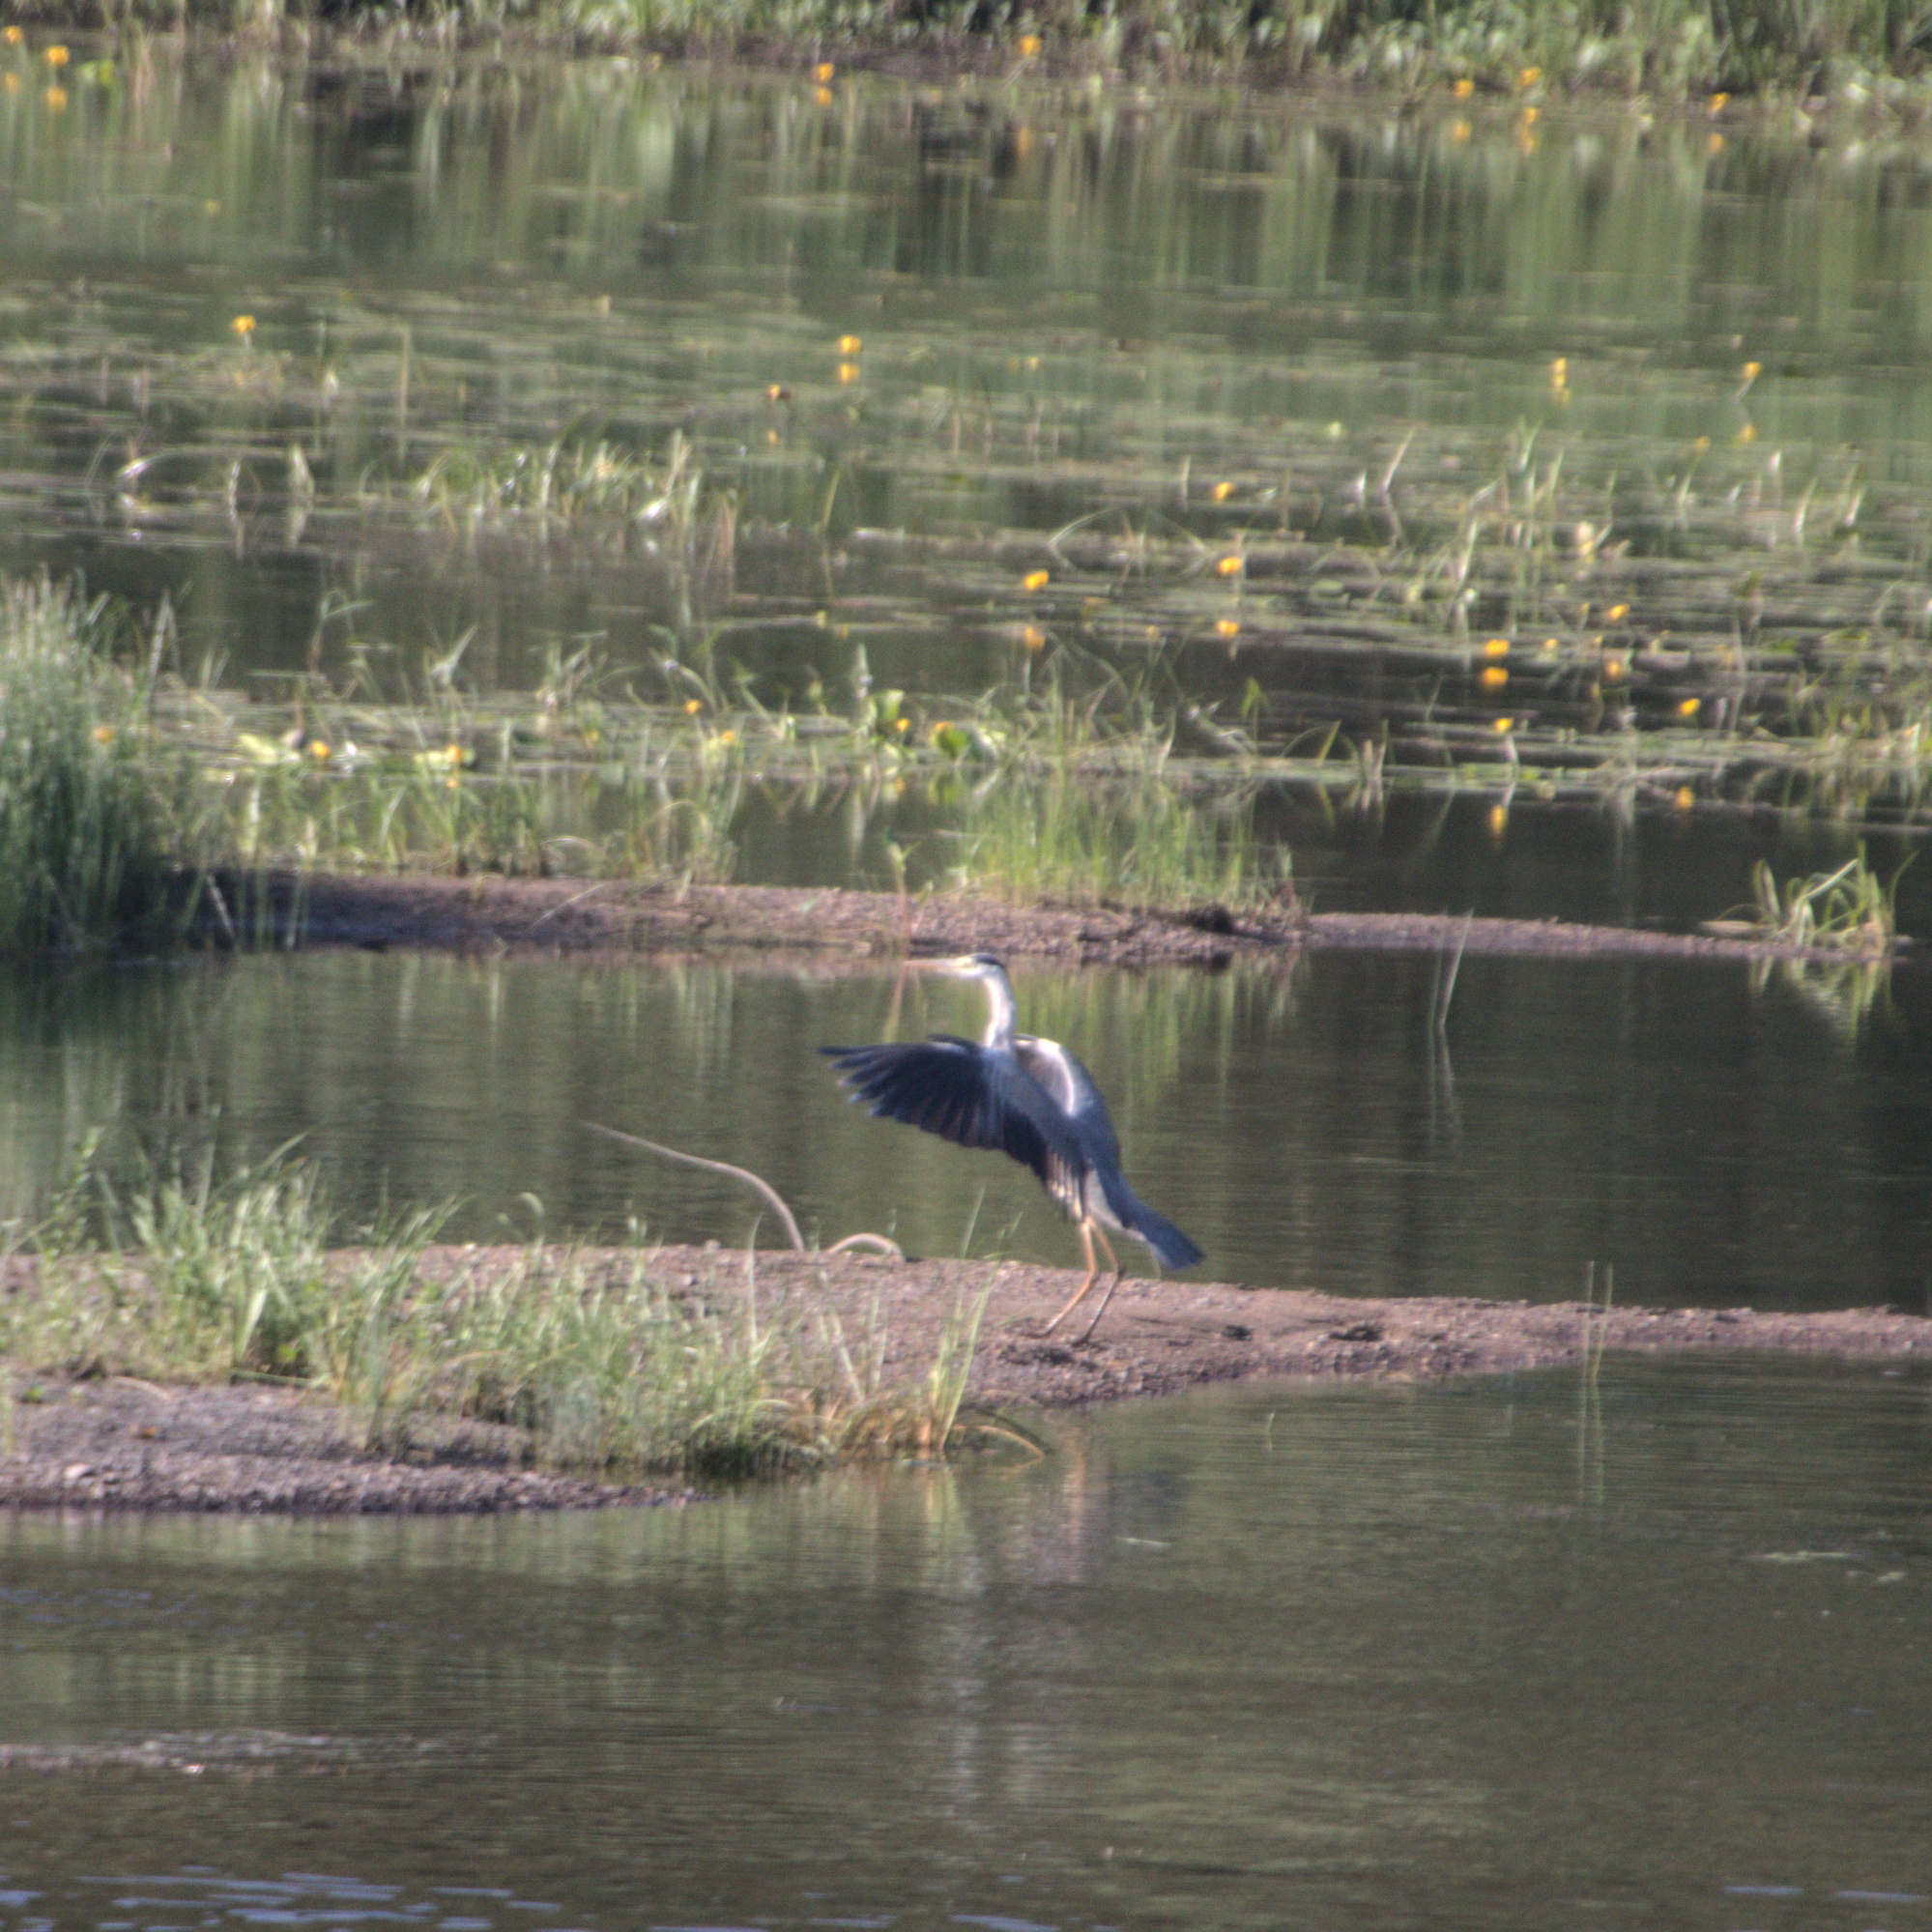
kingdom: Animalia
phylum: Chordata
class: Aves
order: Pelecaniformes
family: Ardeidae
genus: Ardea
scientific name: Ardea cinerea
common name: Grey heron
